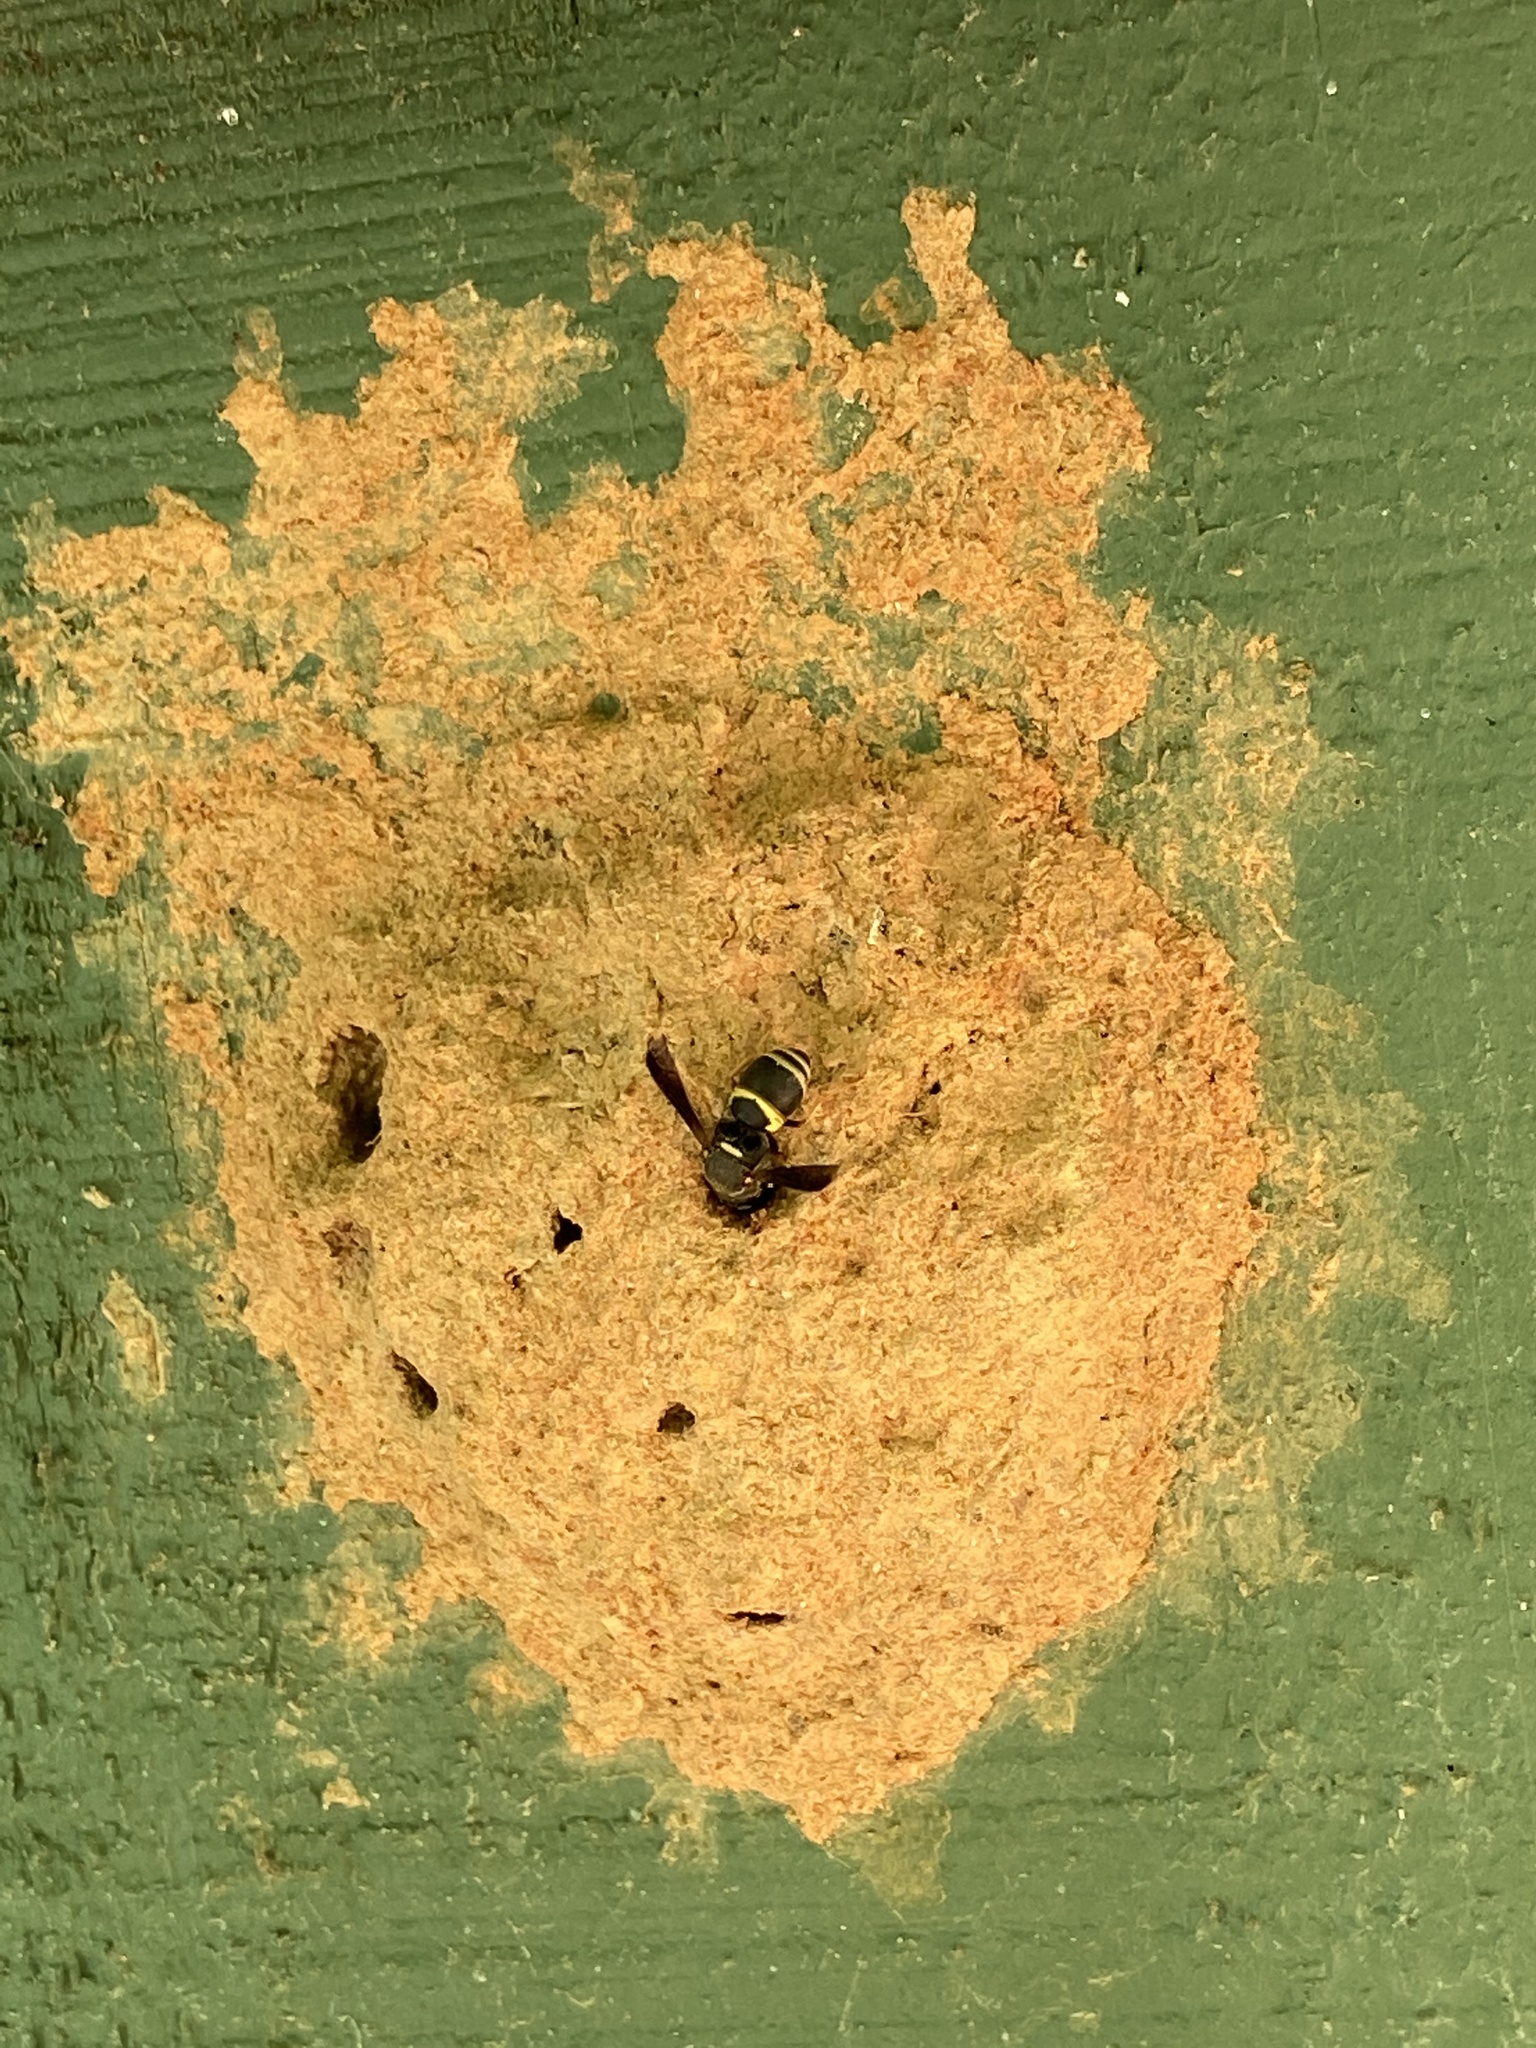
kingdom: Animalia
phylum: Arthropoda
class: Insecta
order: Hymenoptera
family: Eumenidae
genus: Euodynerus
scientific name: Euodynerus hidalgo
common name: Wasp
